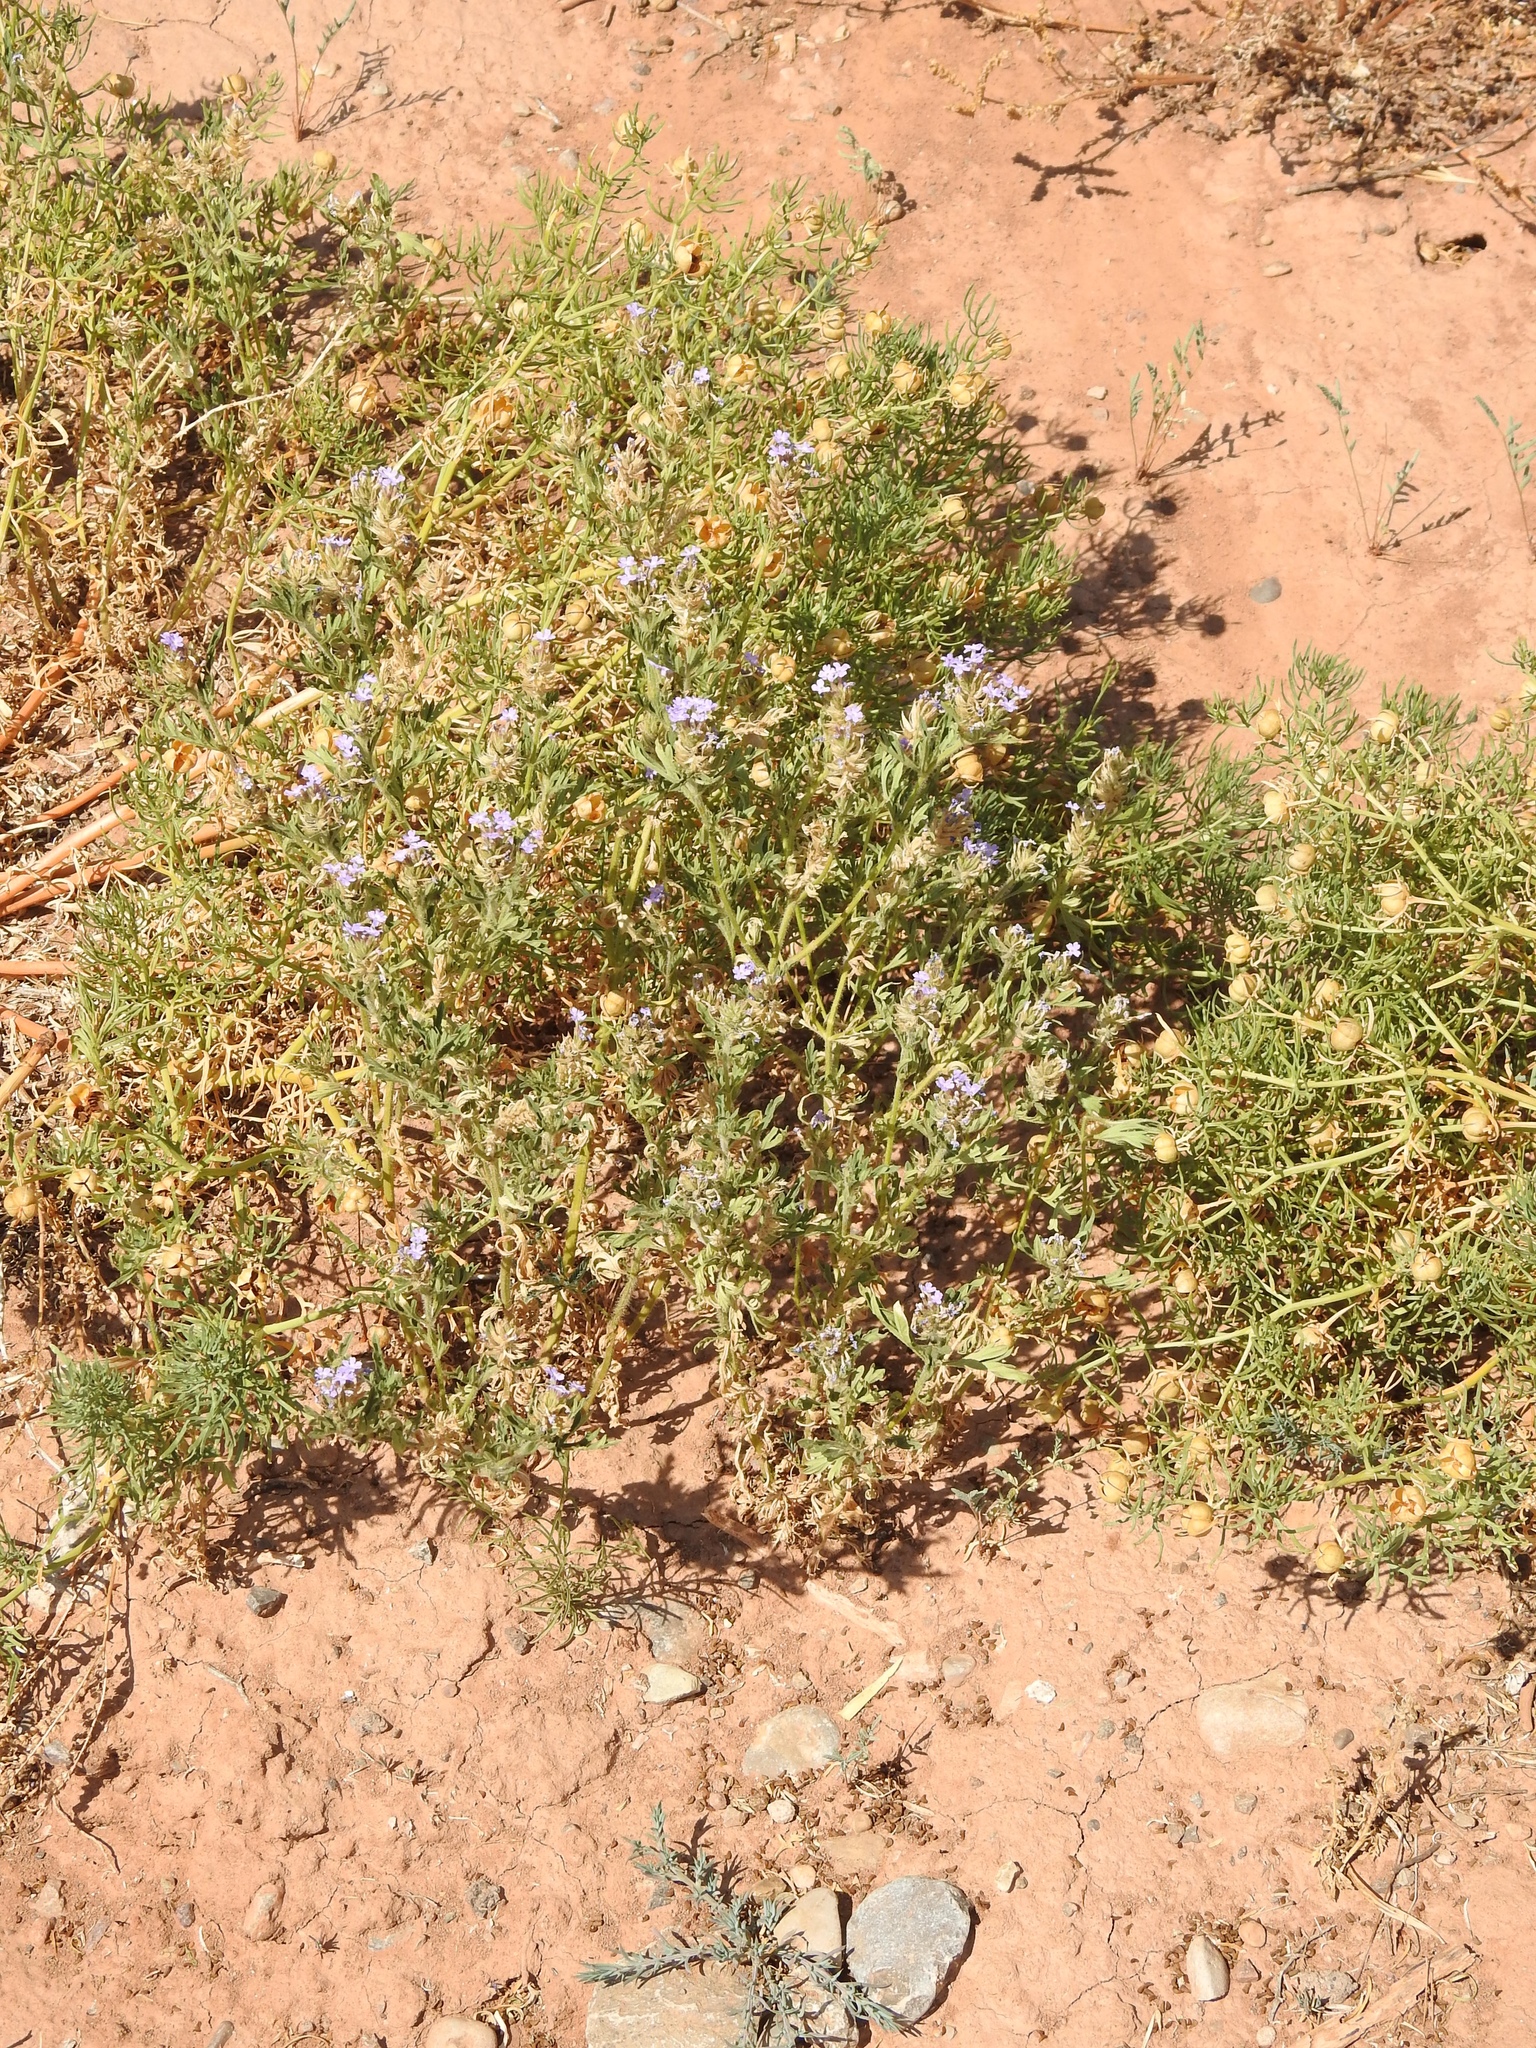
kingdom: Plantae
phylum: Tracheophyta
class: Magnoliopsida
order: Lamiales
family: Verbenaceae
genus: Verbena
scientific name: Verbena bipinnatifida
